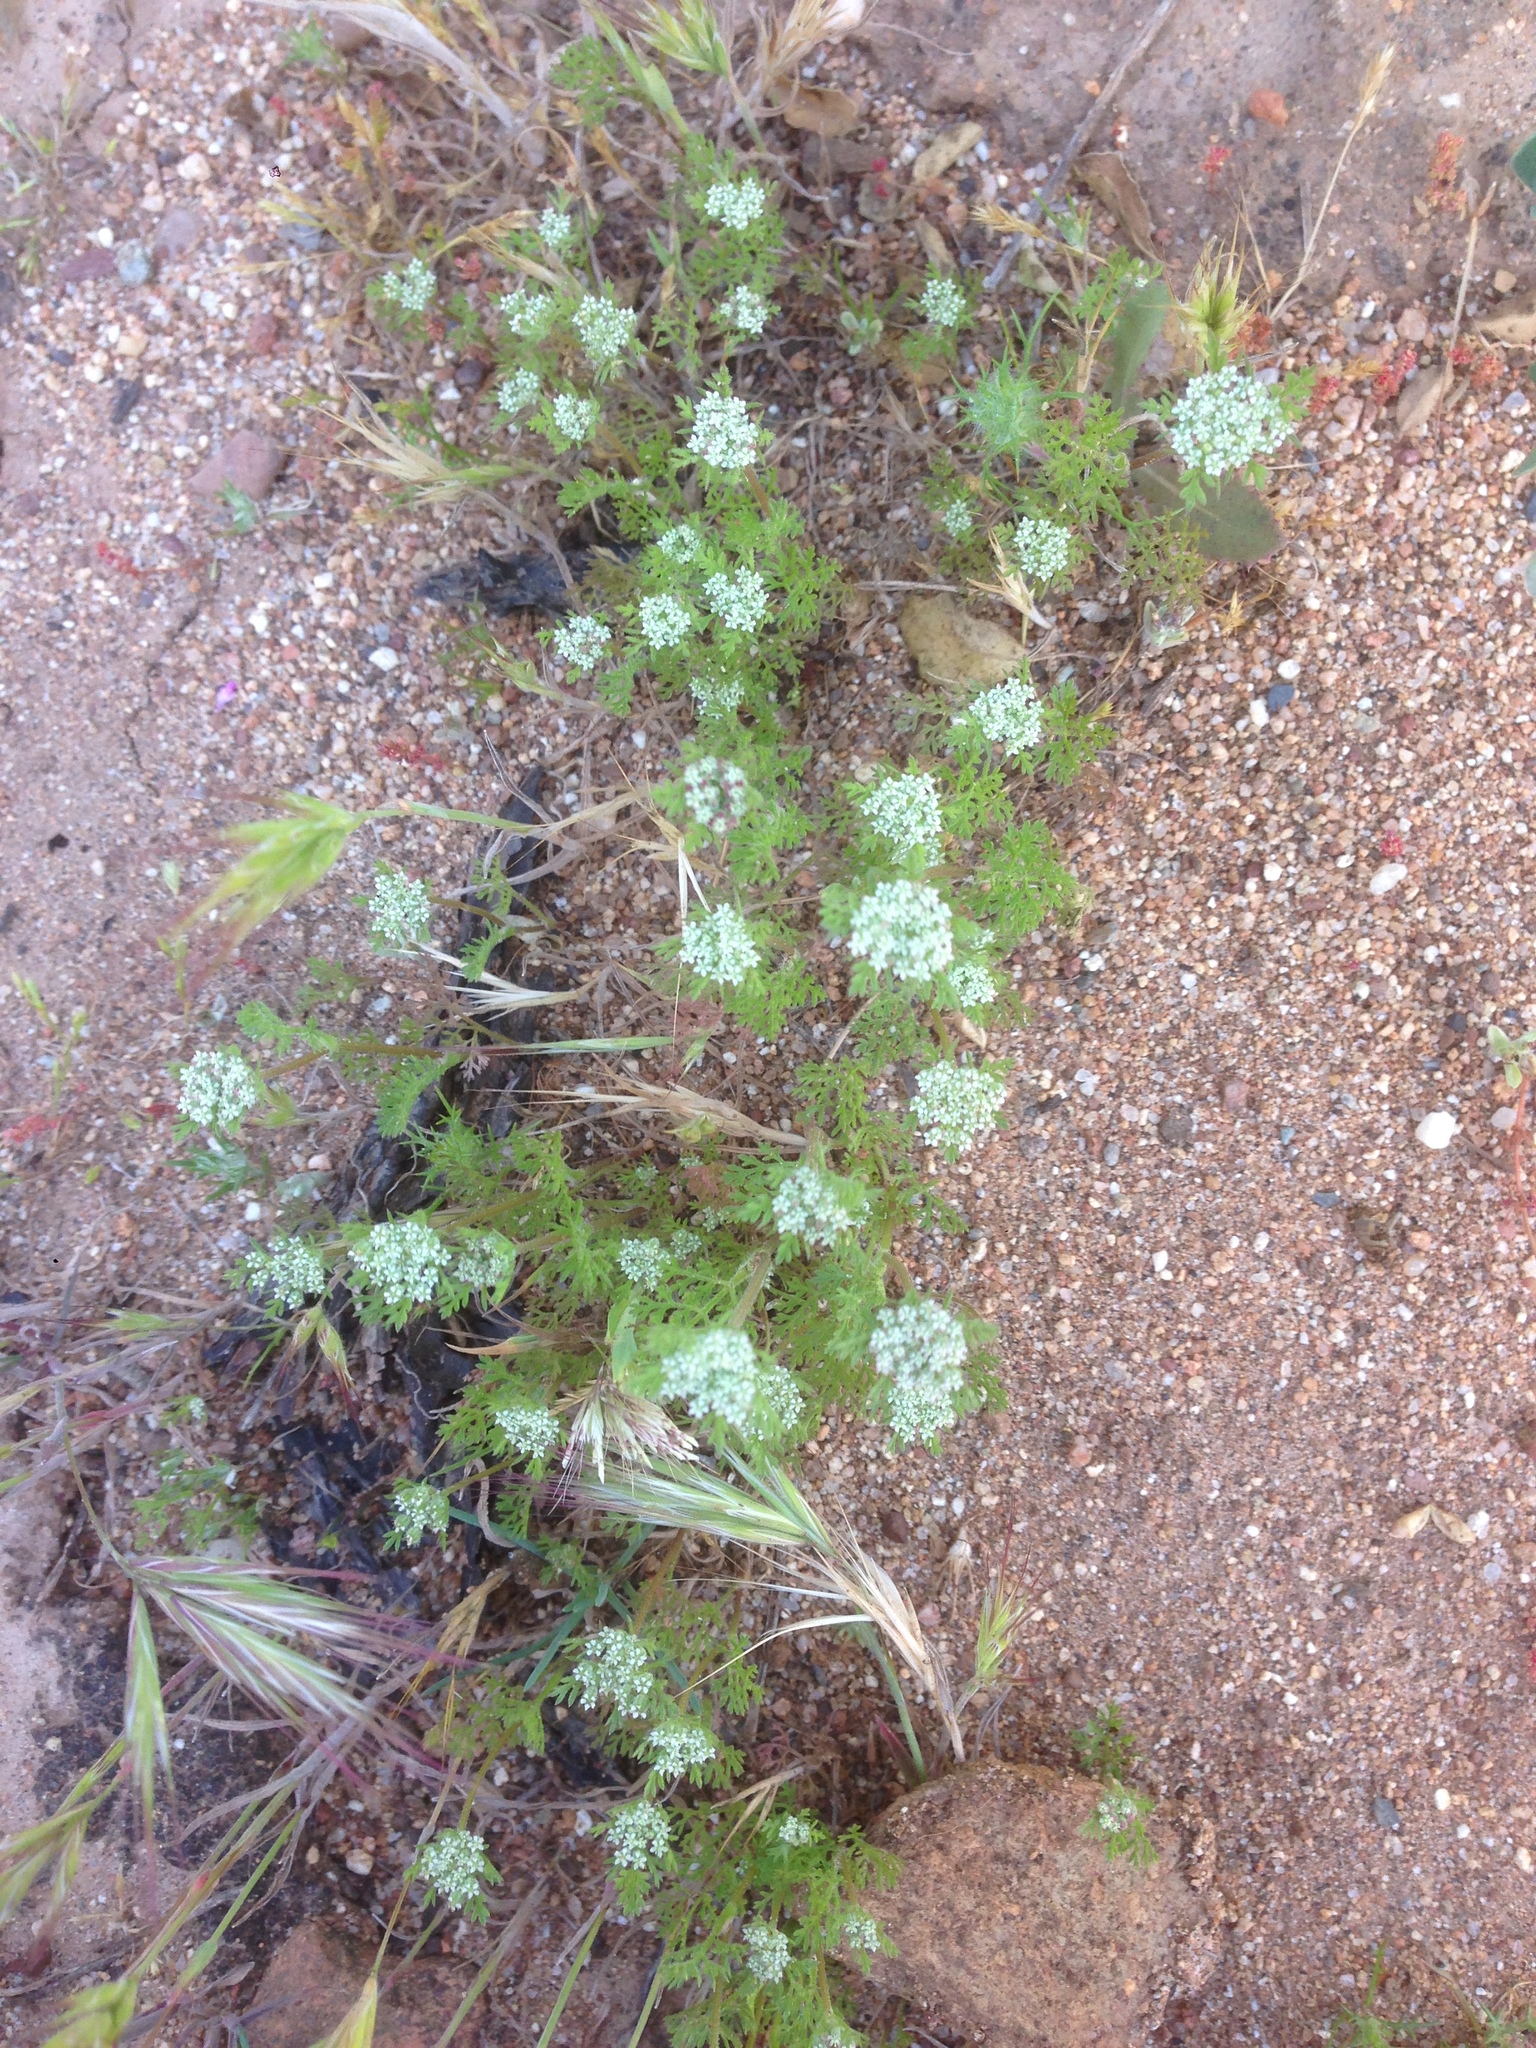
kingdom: Plantae
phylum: Tracheophyta
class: Magnoliopsida
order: Apiales
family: Apiaceae
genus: Daucus
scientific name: Daucus pusillus
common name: Southwest wild carrot
